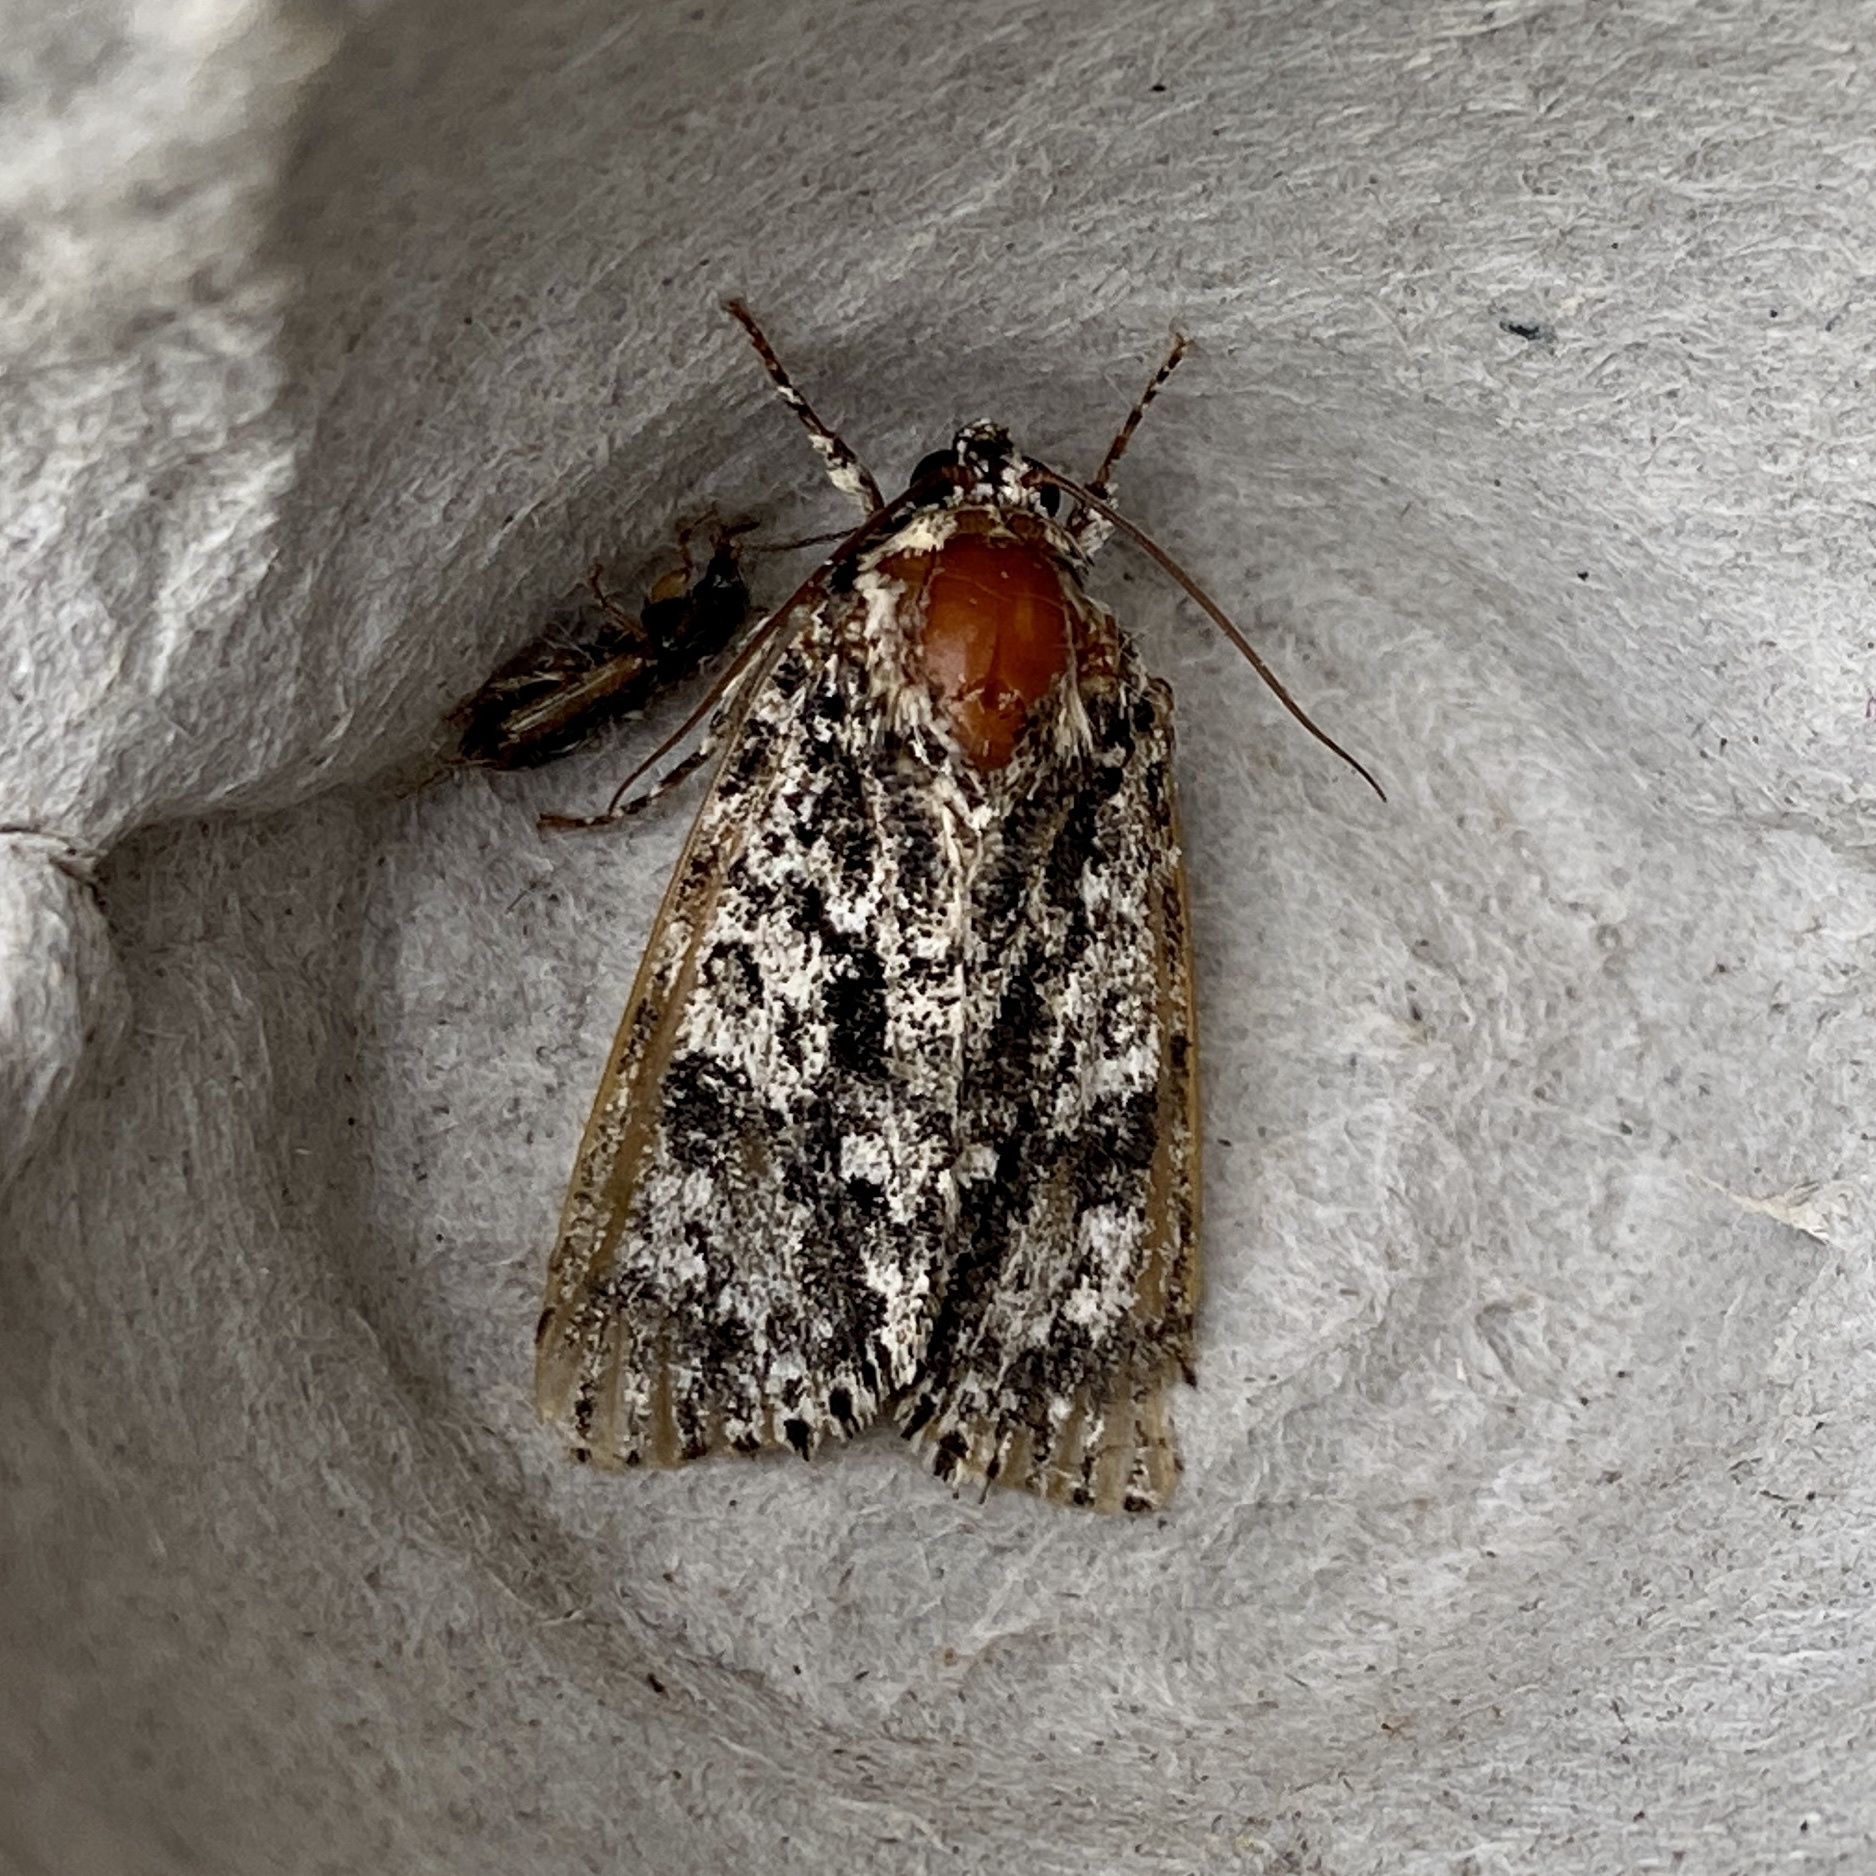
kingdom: Animalia
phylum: Arthropoda
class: Insecta
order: Lepidoptera
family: Noctuidae
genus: Acronicta
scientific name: Acronicta noctivaga
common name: Night-wandering dagger
